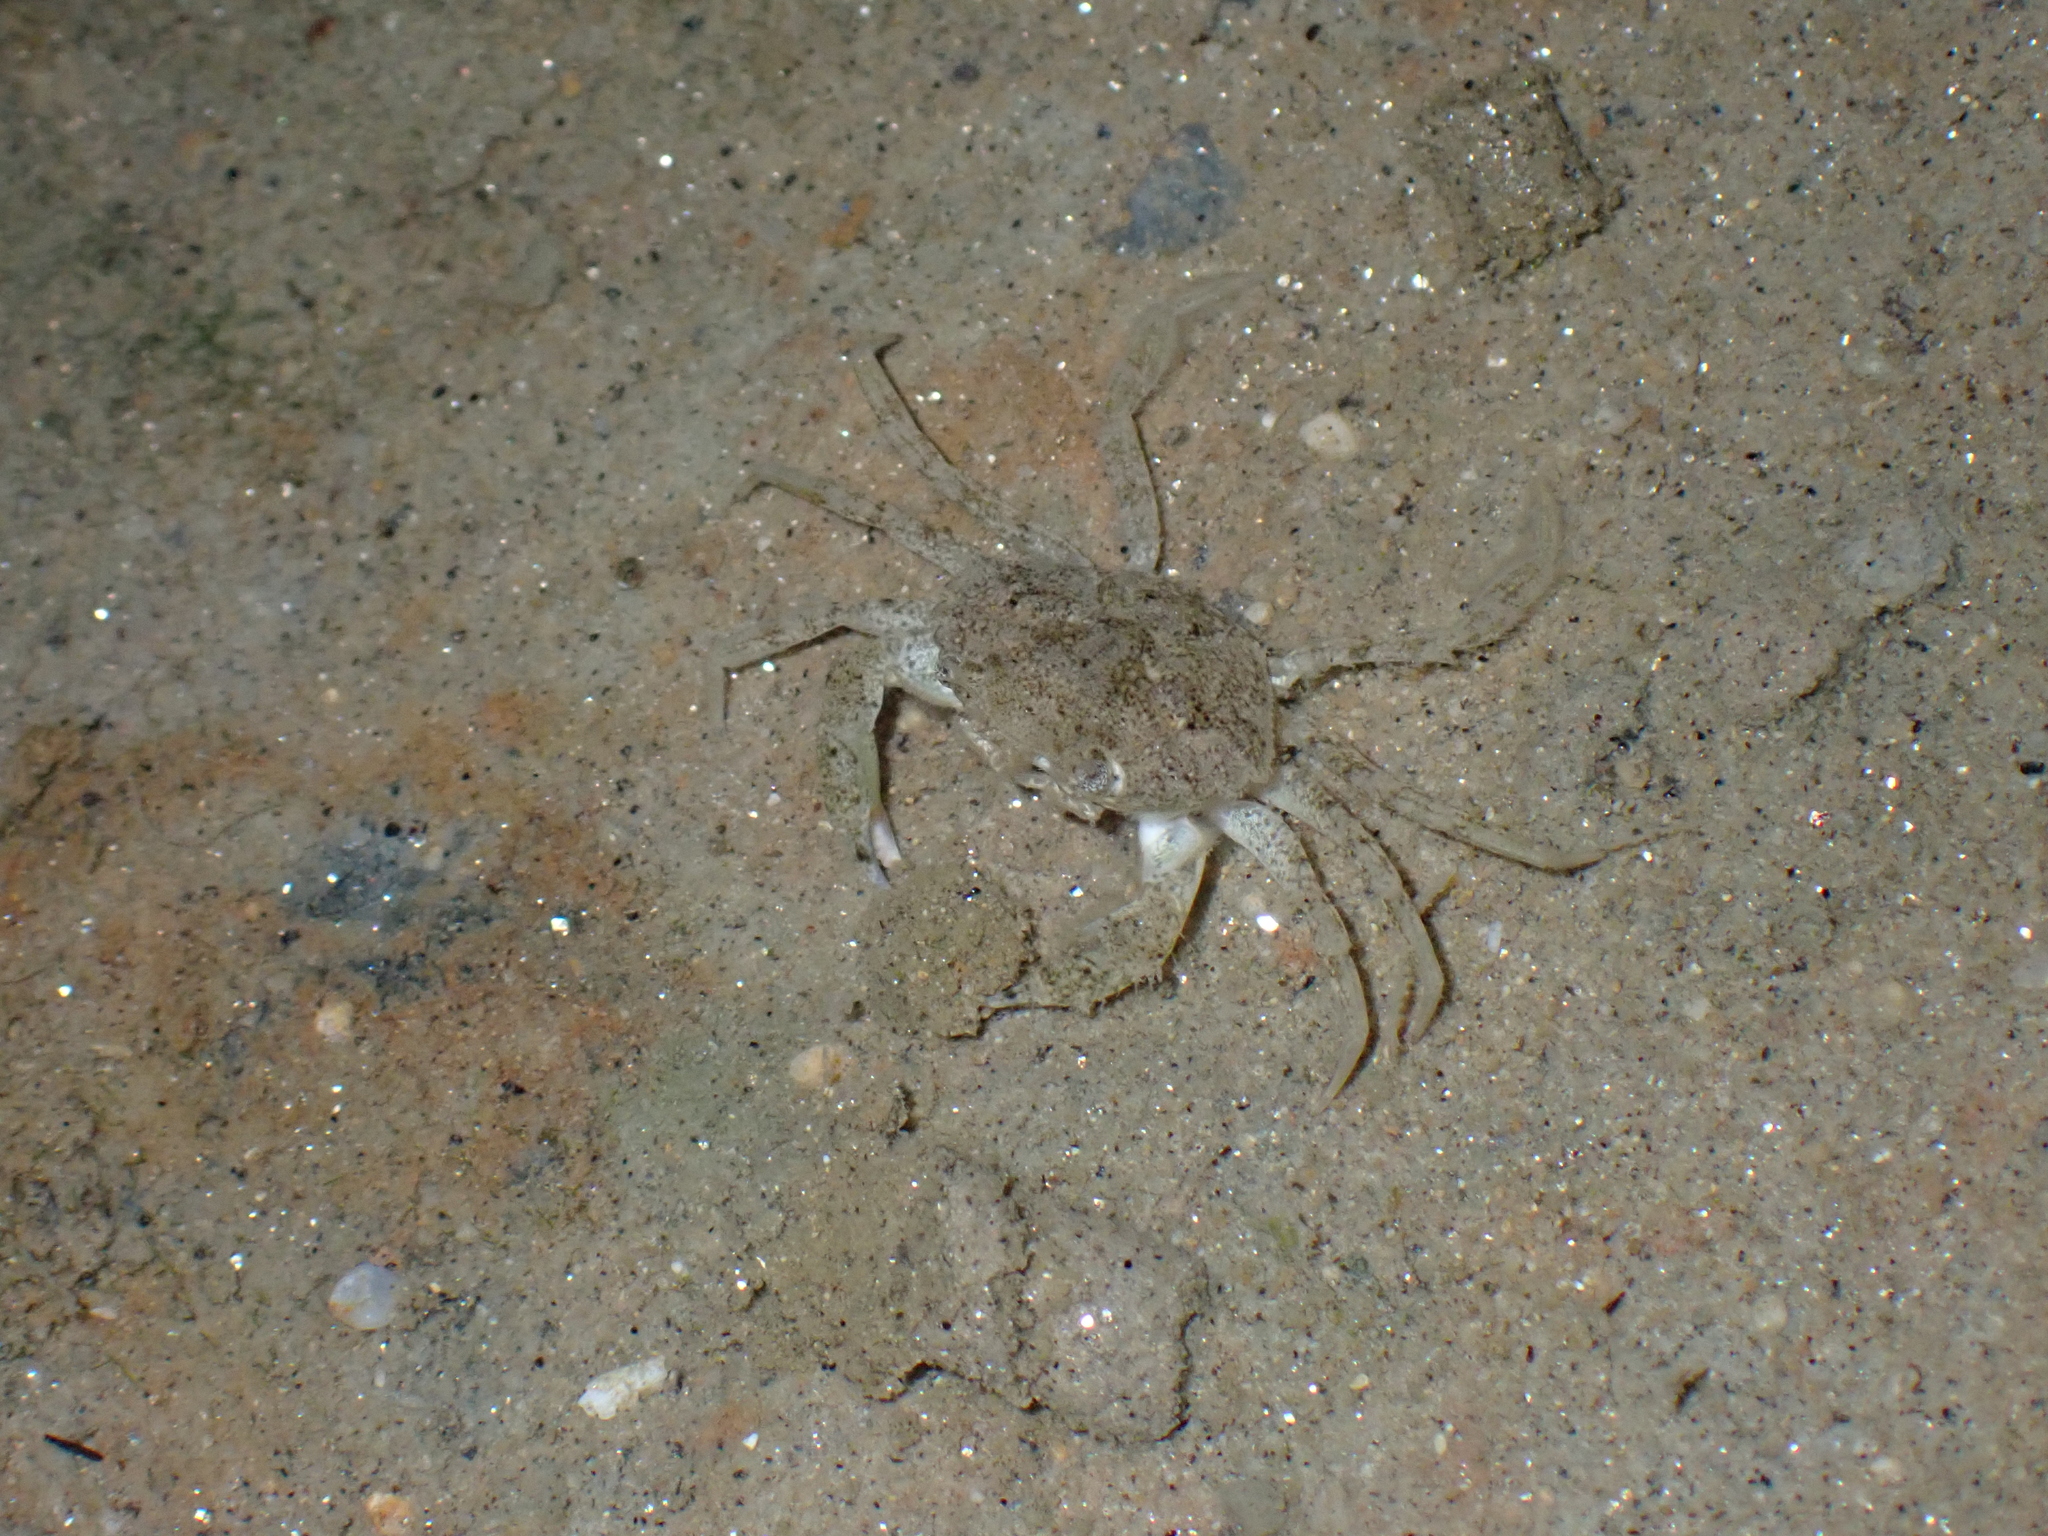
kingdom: Animalia
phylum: Arthropoda
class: Malacostraca
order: Decapoda
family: Carcinidae
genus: Carcinus
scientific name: Carcinus maenas
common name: European green crab
